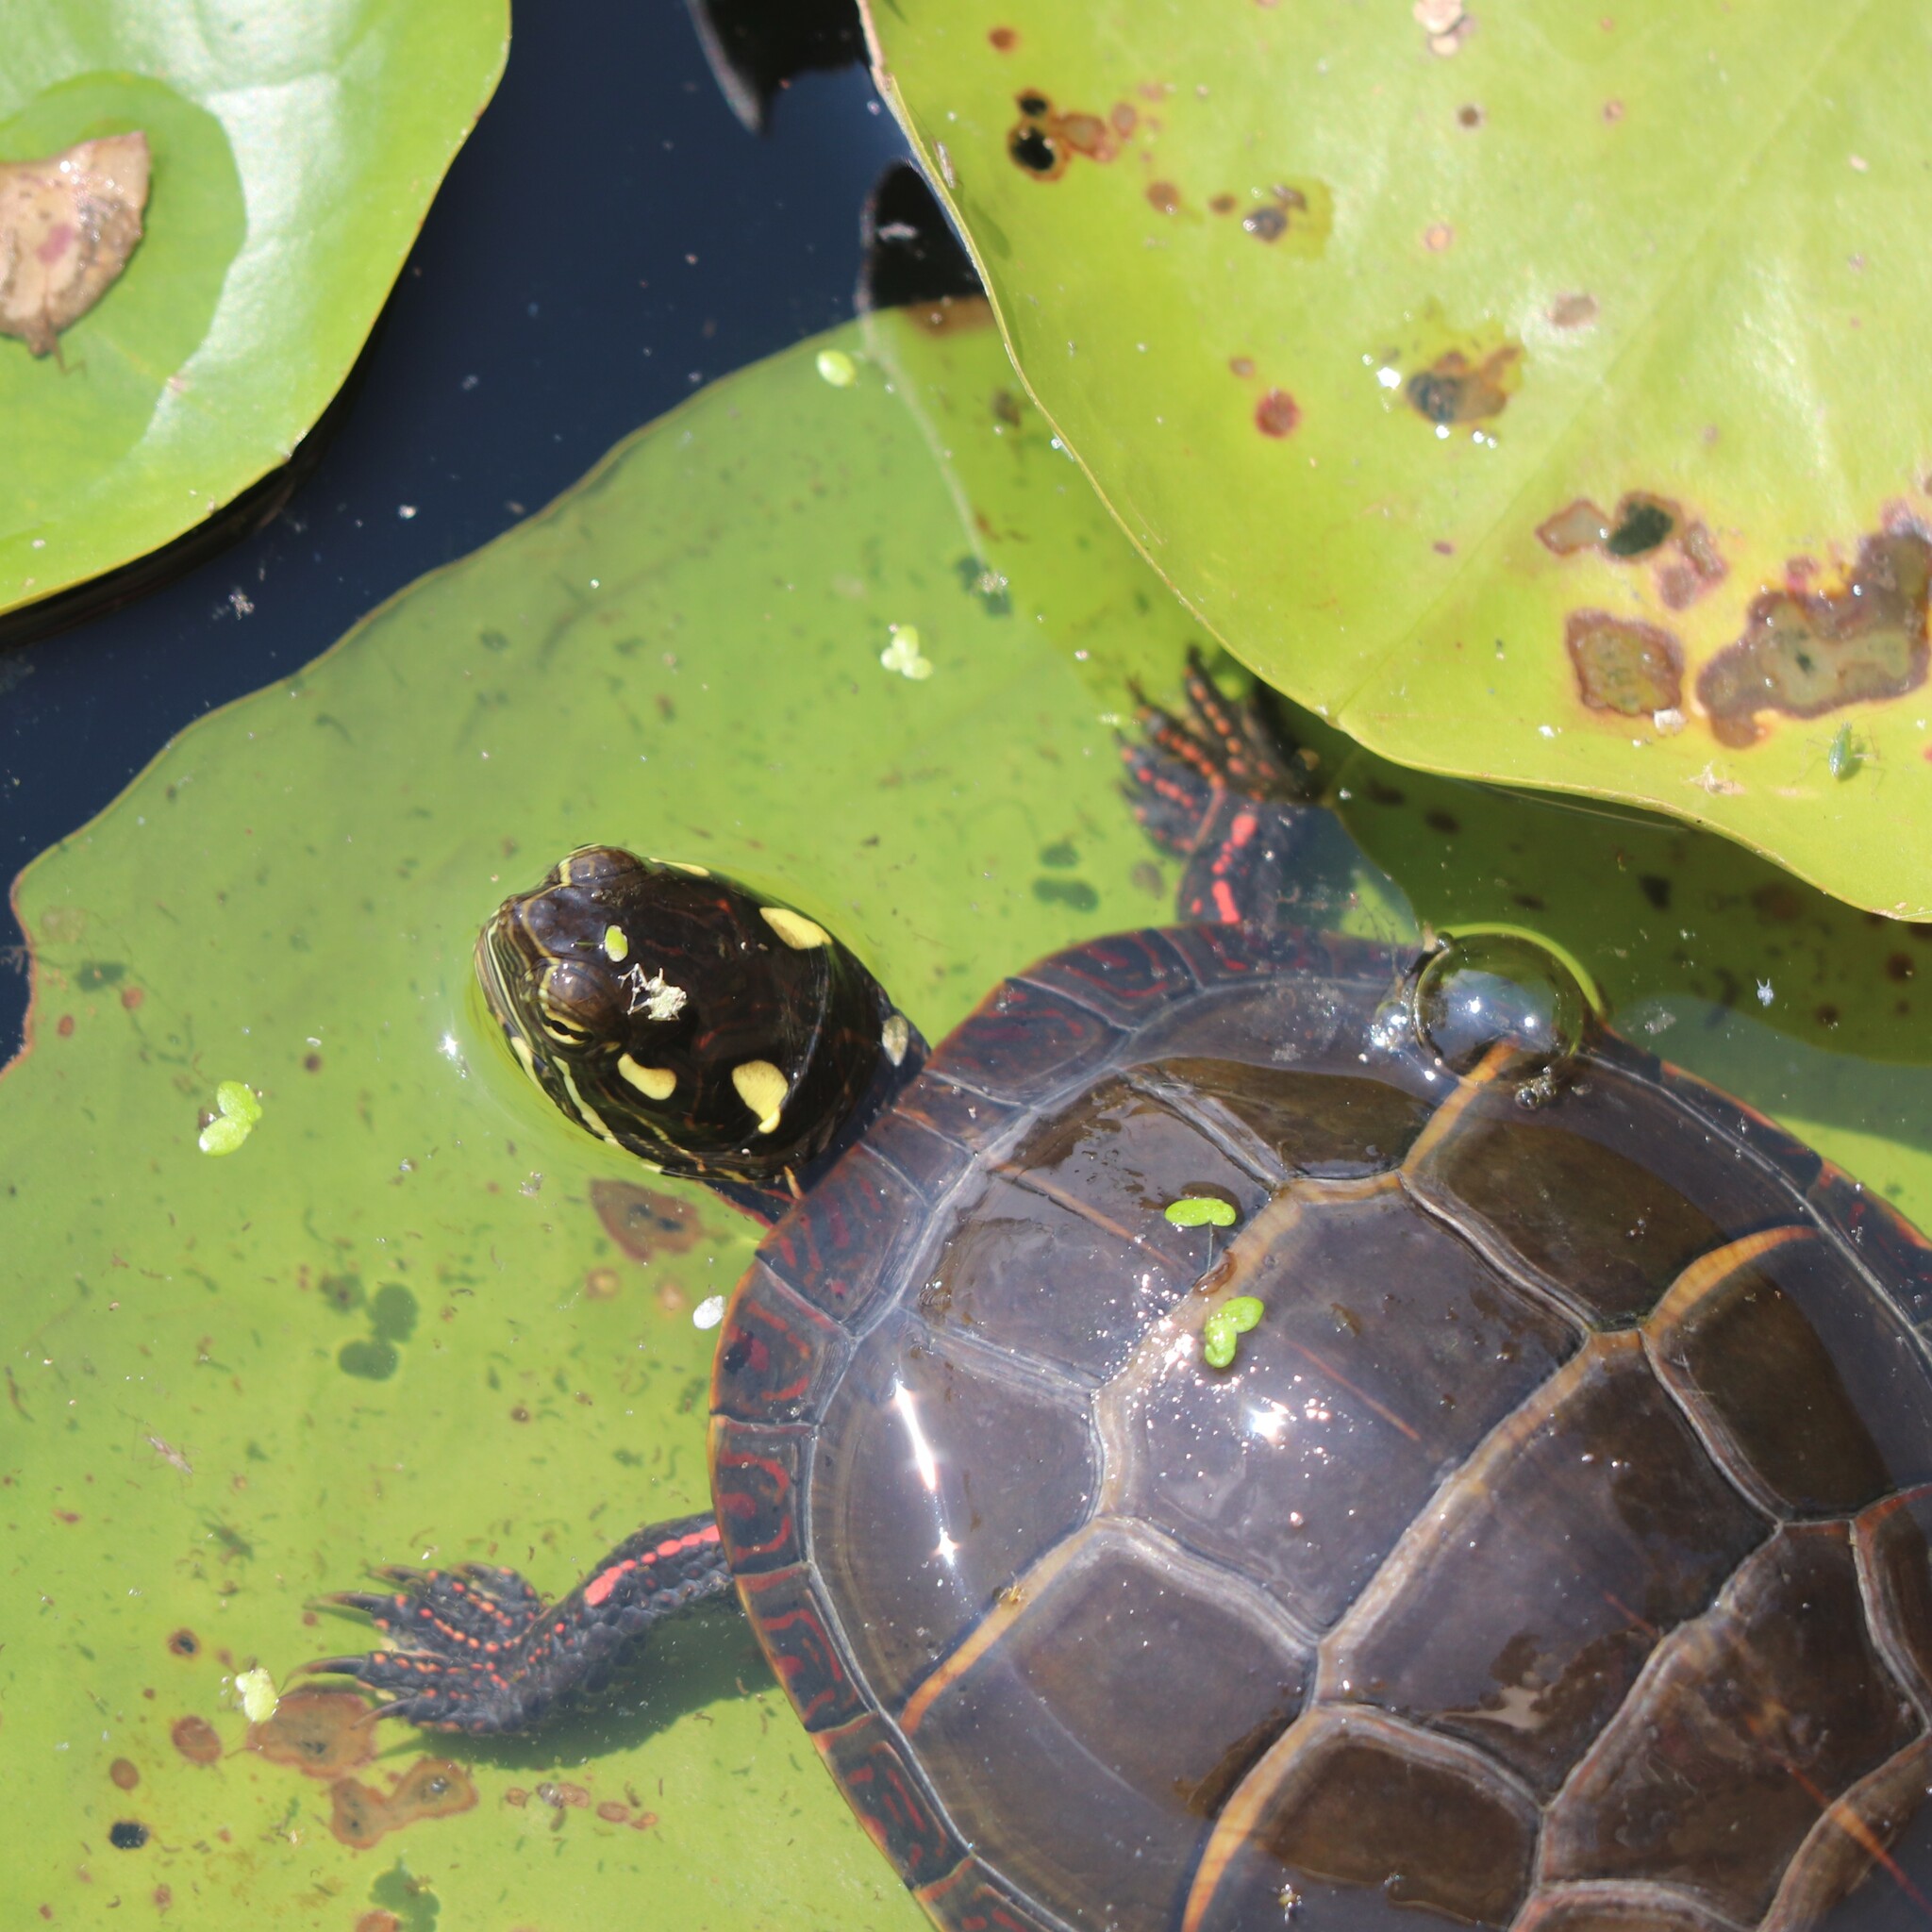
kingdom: Animalia
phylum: Chordata
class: Testudines
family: Emydidae
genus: Chrysemys
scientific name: Chrysemys picta
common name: Painted turtle
